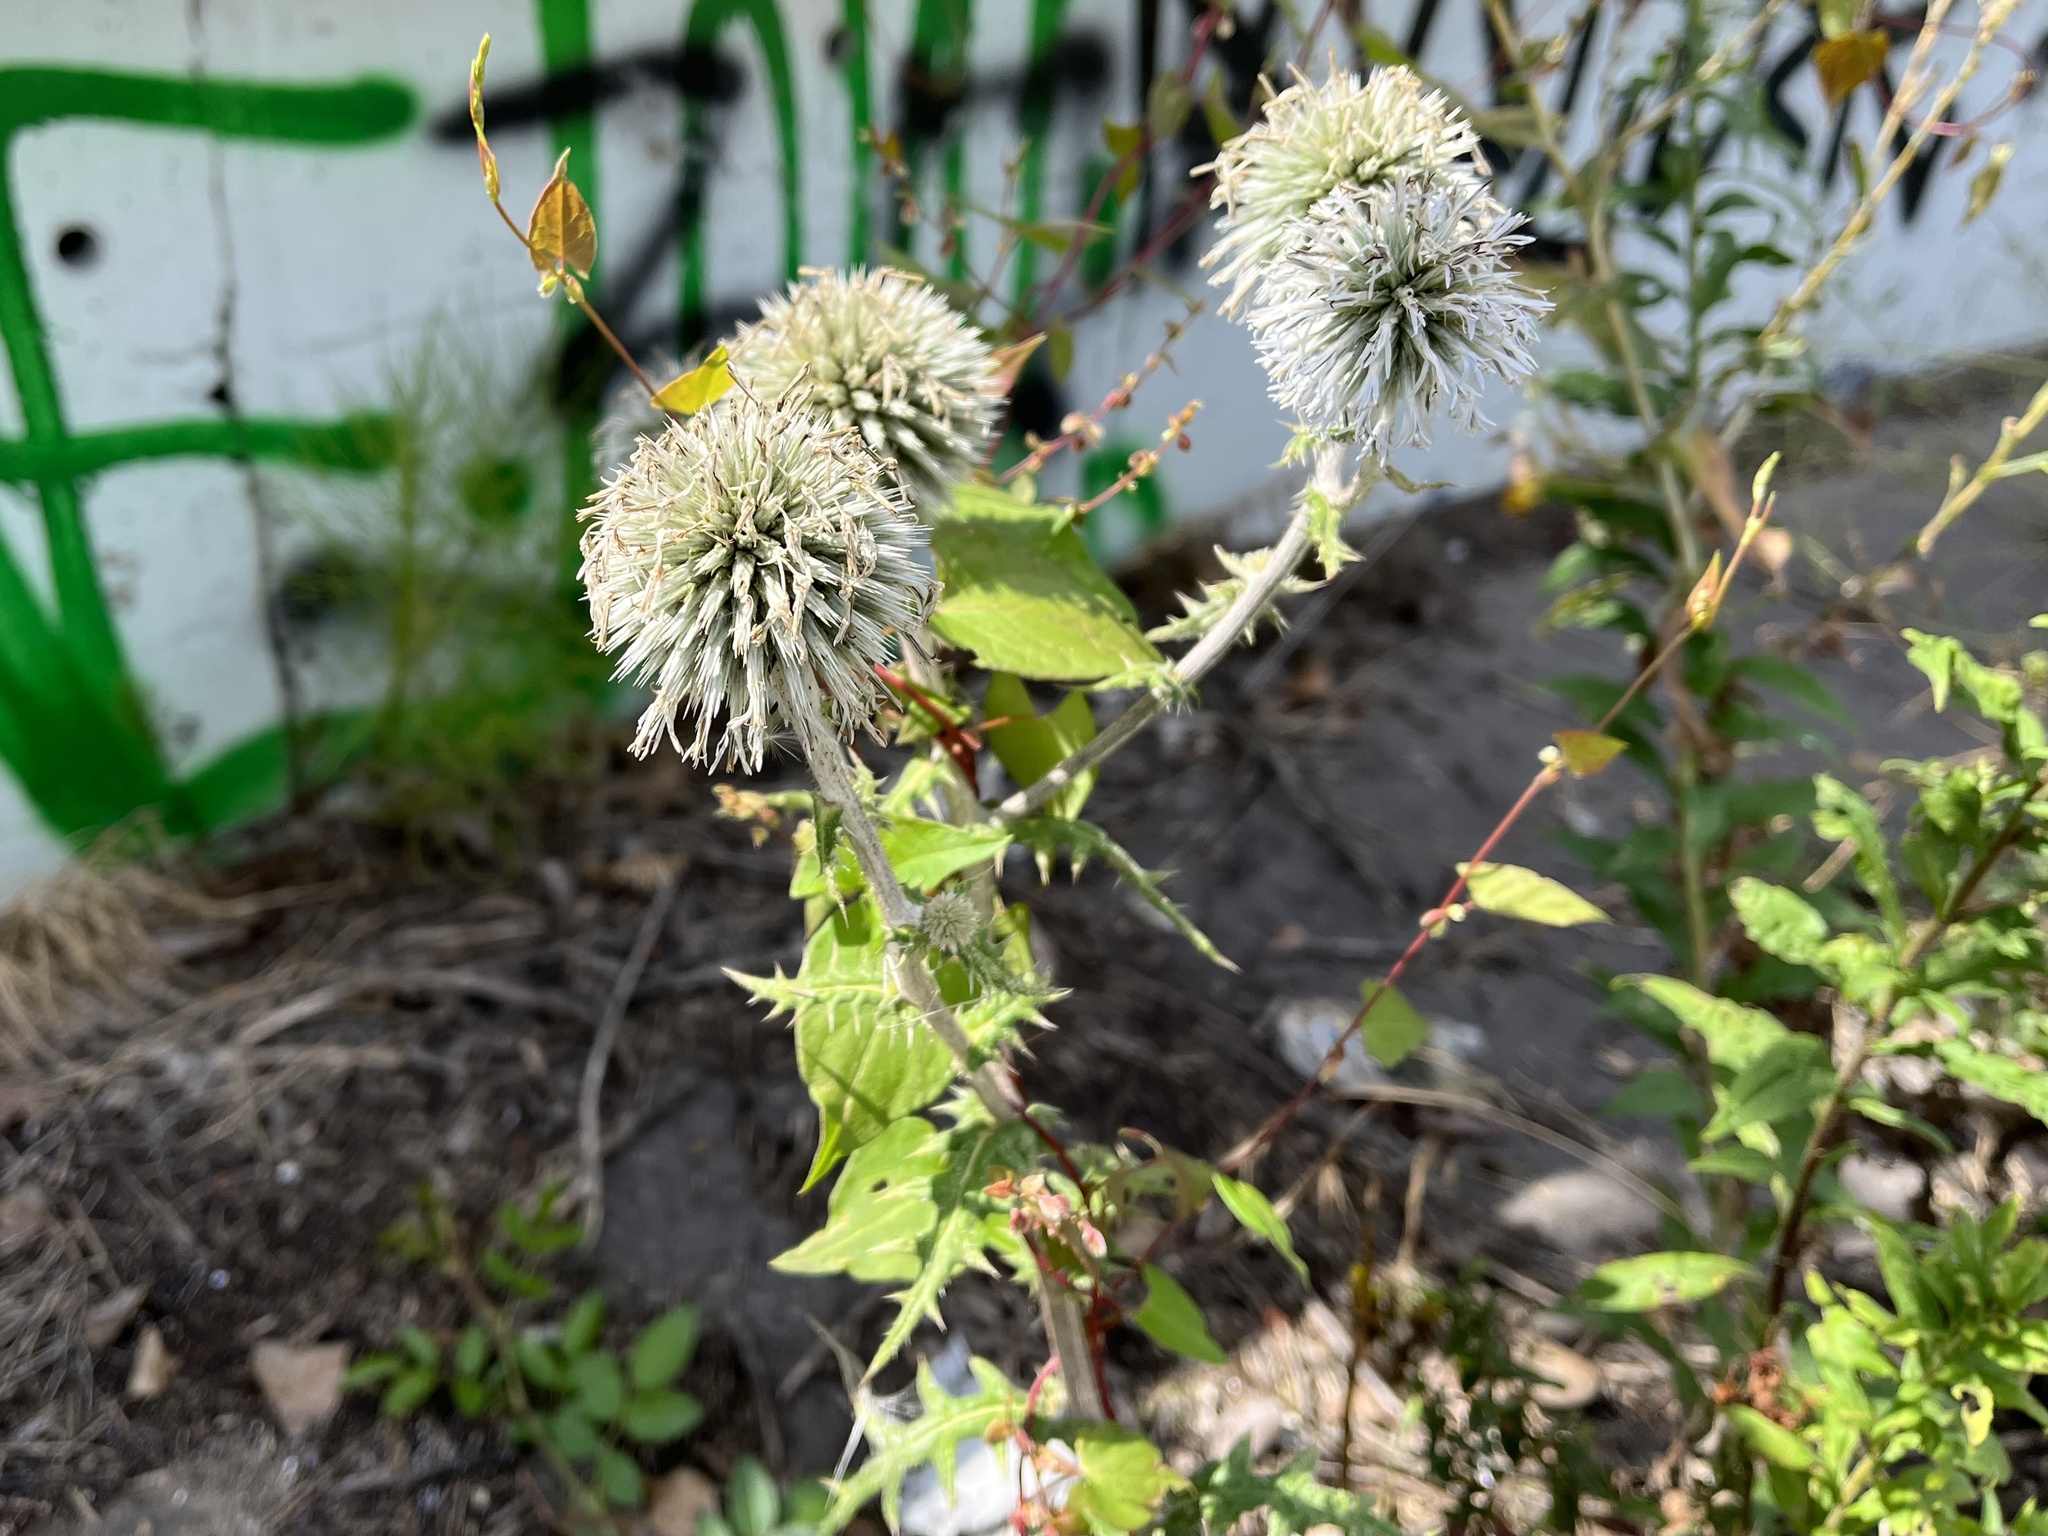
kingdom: Plantae
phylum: Tracheophyta
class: Magnoliopsida
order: Asterales
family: Asteraceae
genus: Echinops
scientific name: Echinops sphaerocephalus
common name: Glandular globe-thistle
